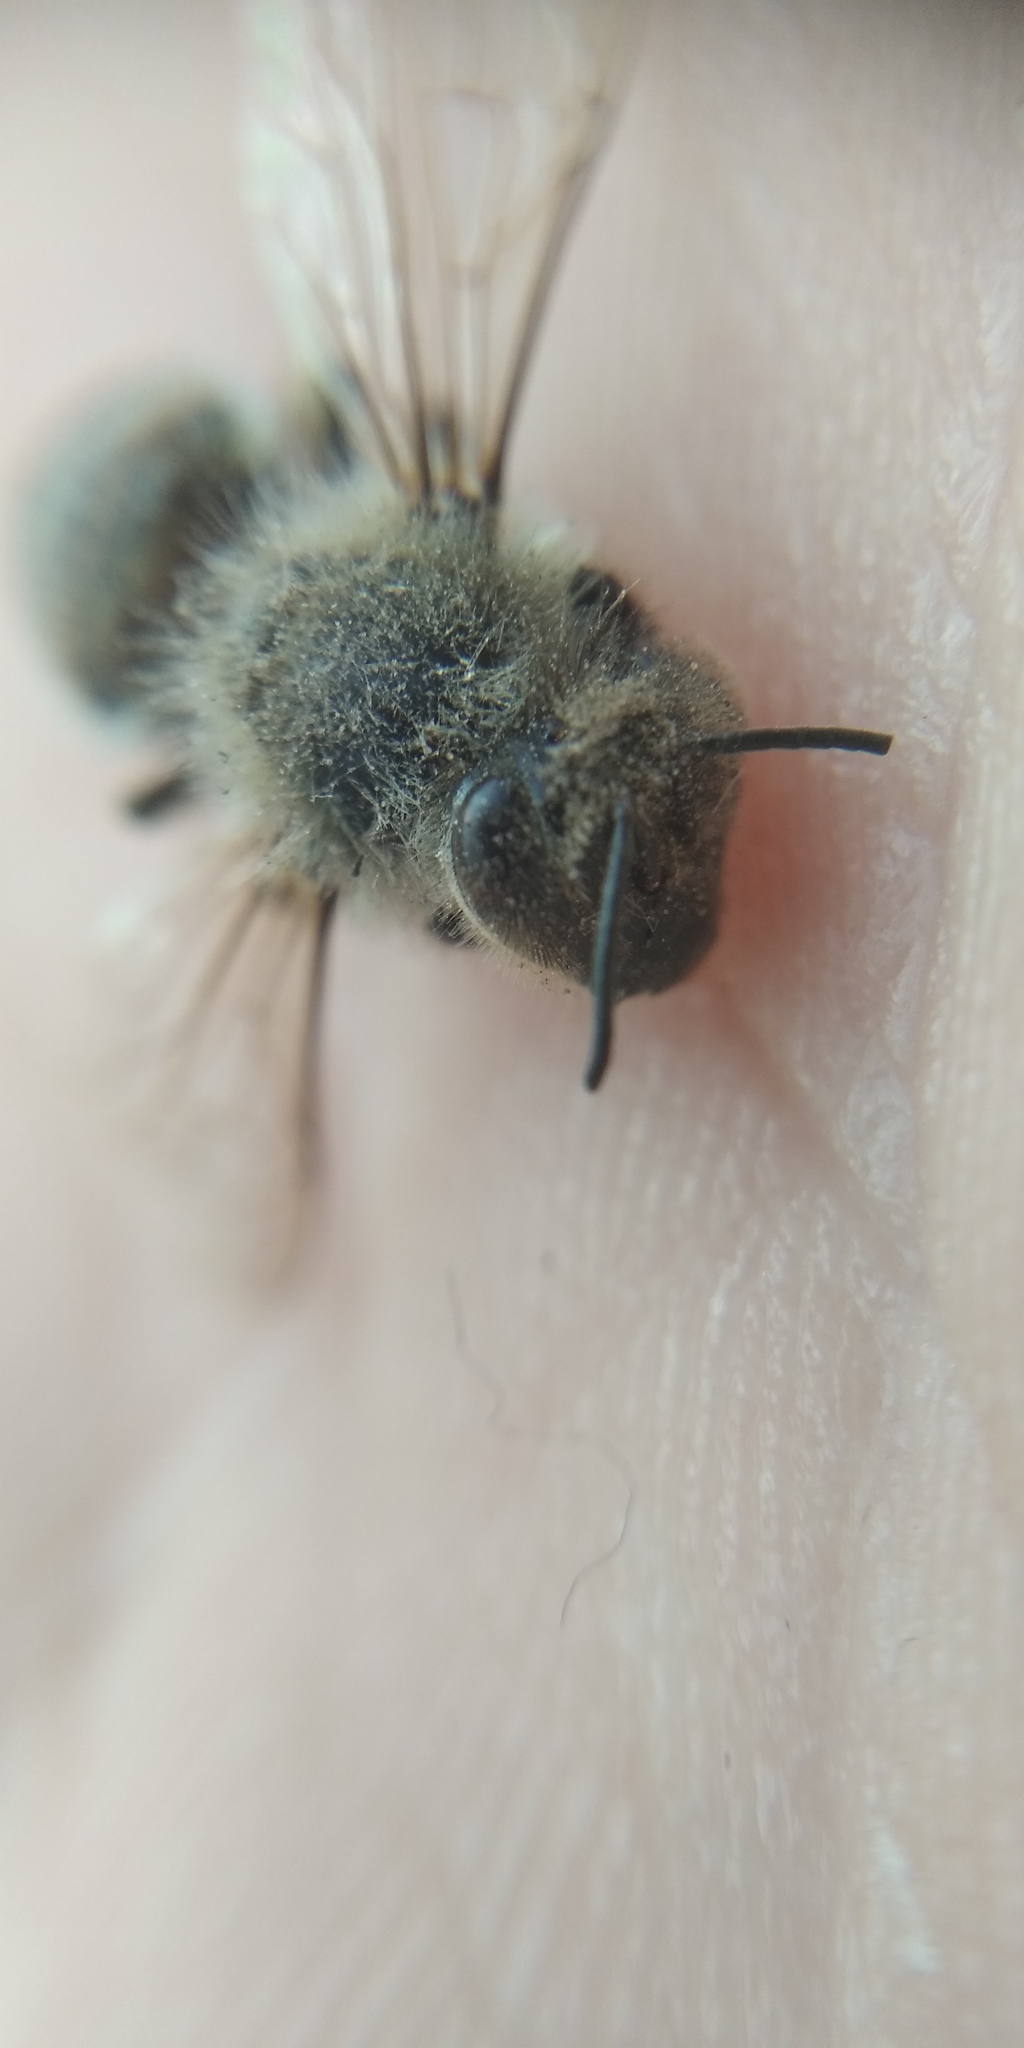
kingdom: Animalia
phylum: Arthropoda
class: Insecta
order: Hymenoptera
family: Apidae
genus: Apis
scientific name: Apis mellifera
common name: Honey bee
